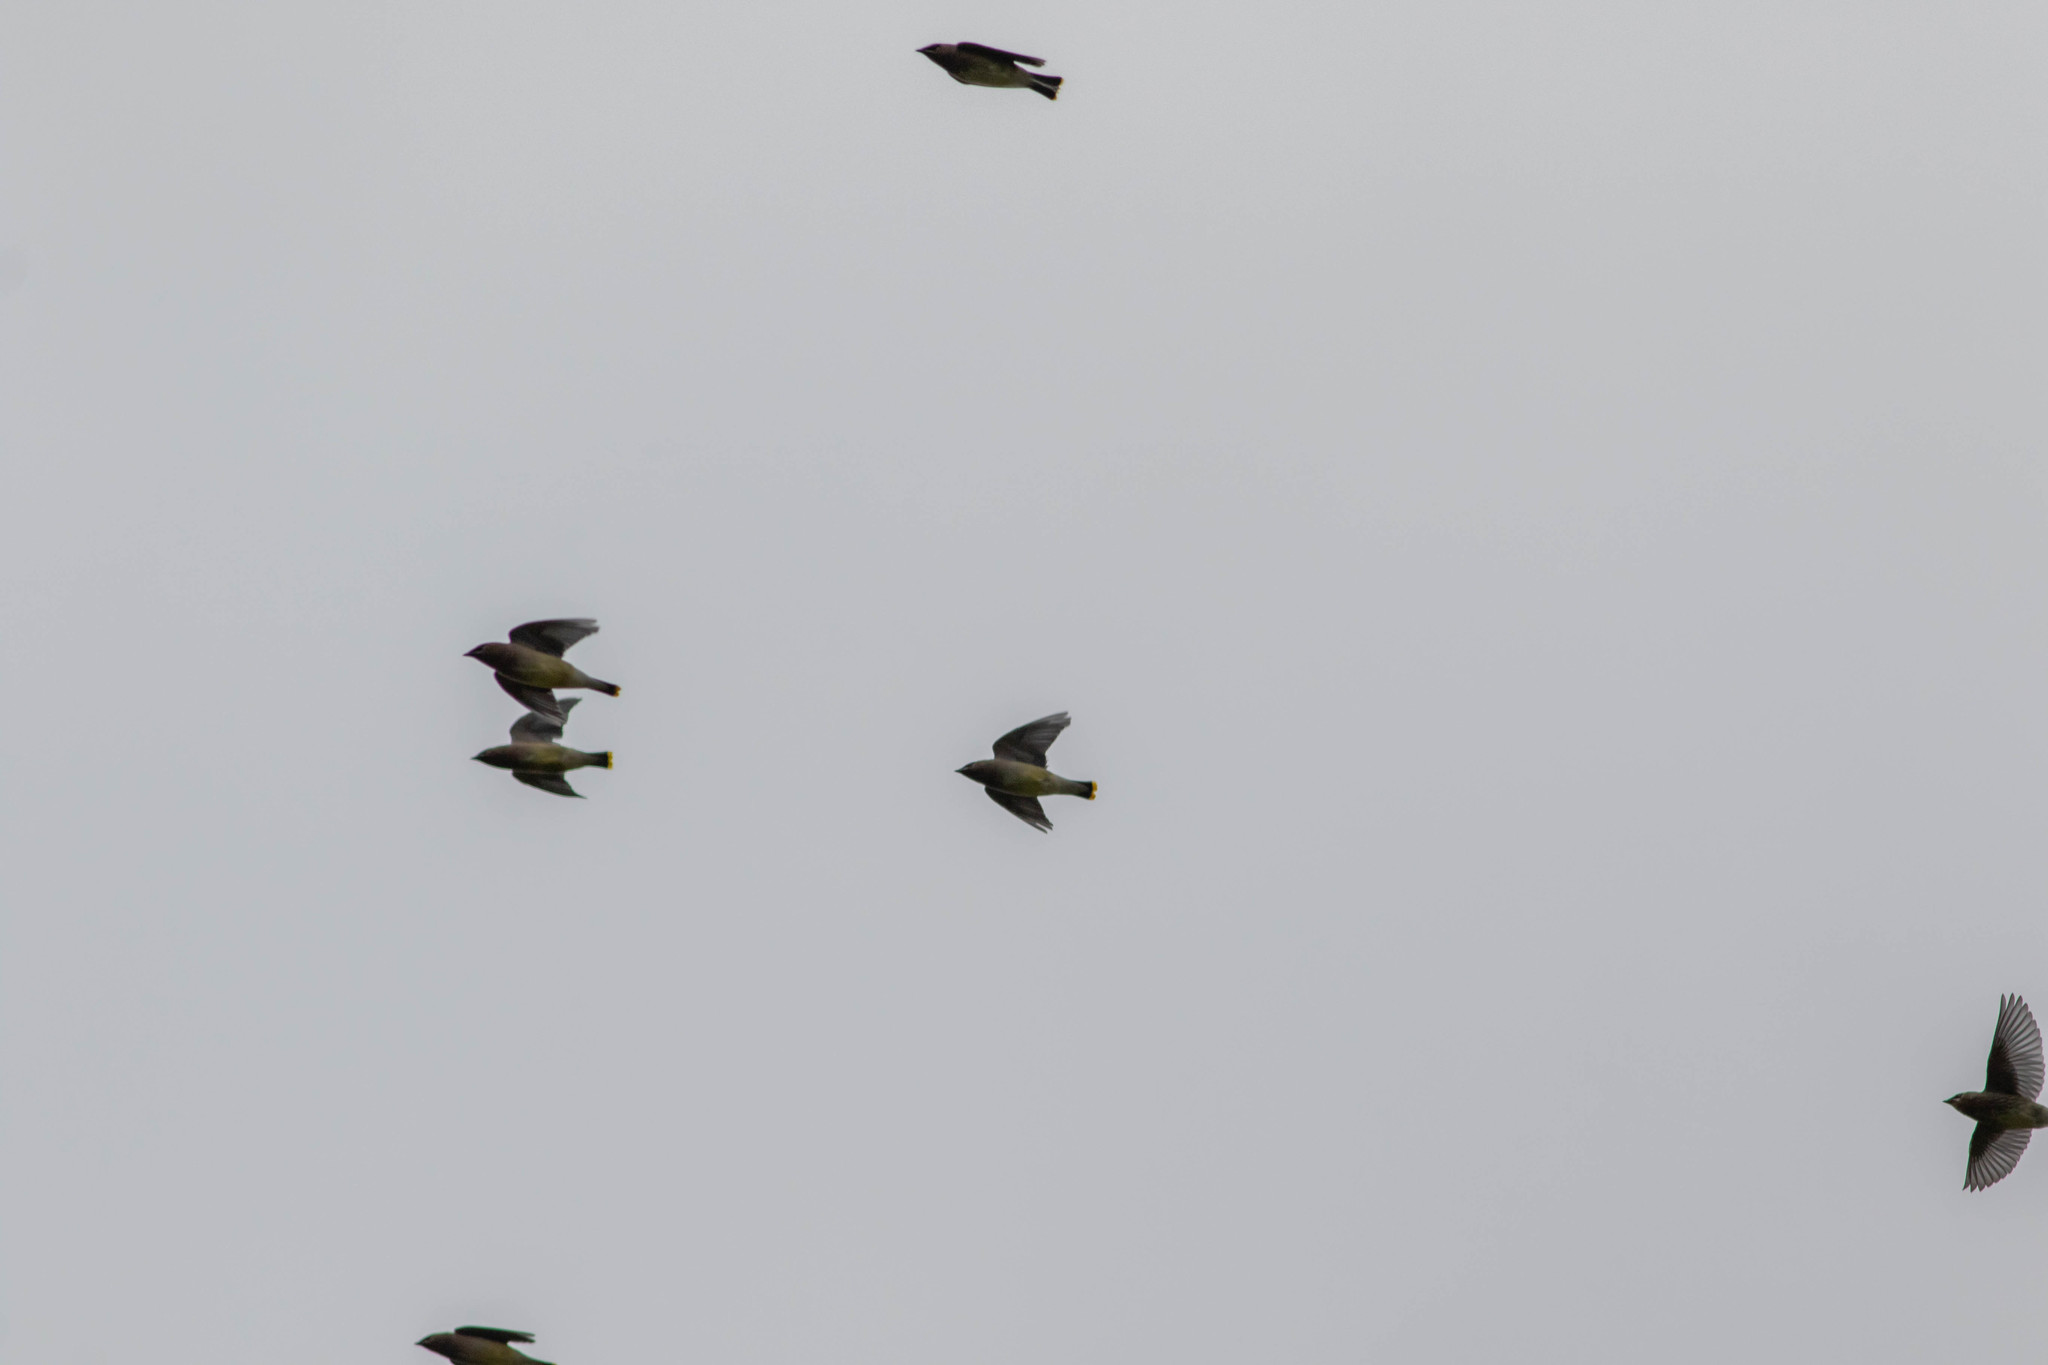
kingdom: Animalia
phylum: Chordata
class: Aves
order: Passeriformes
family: Bombycillidae
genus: Bombycilla
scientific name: Bombycilla cedrorum
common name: Cedar waxwing
